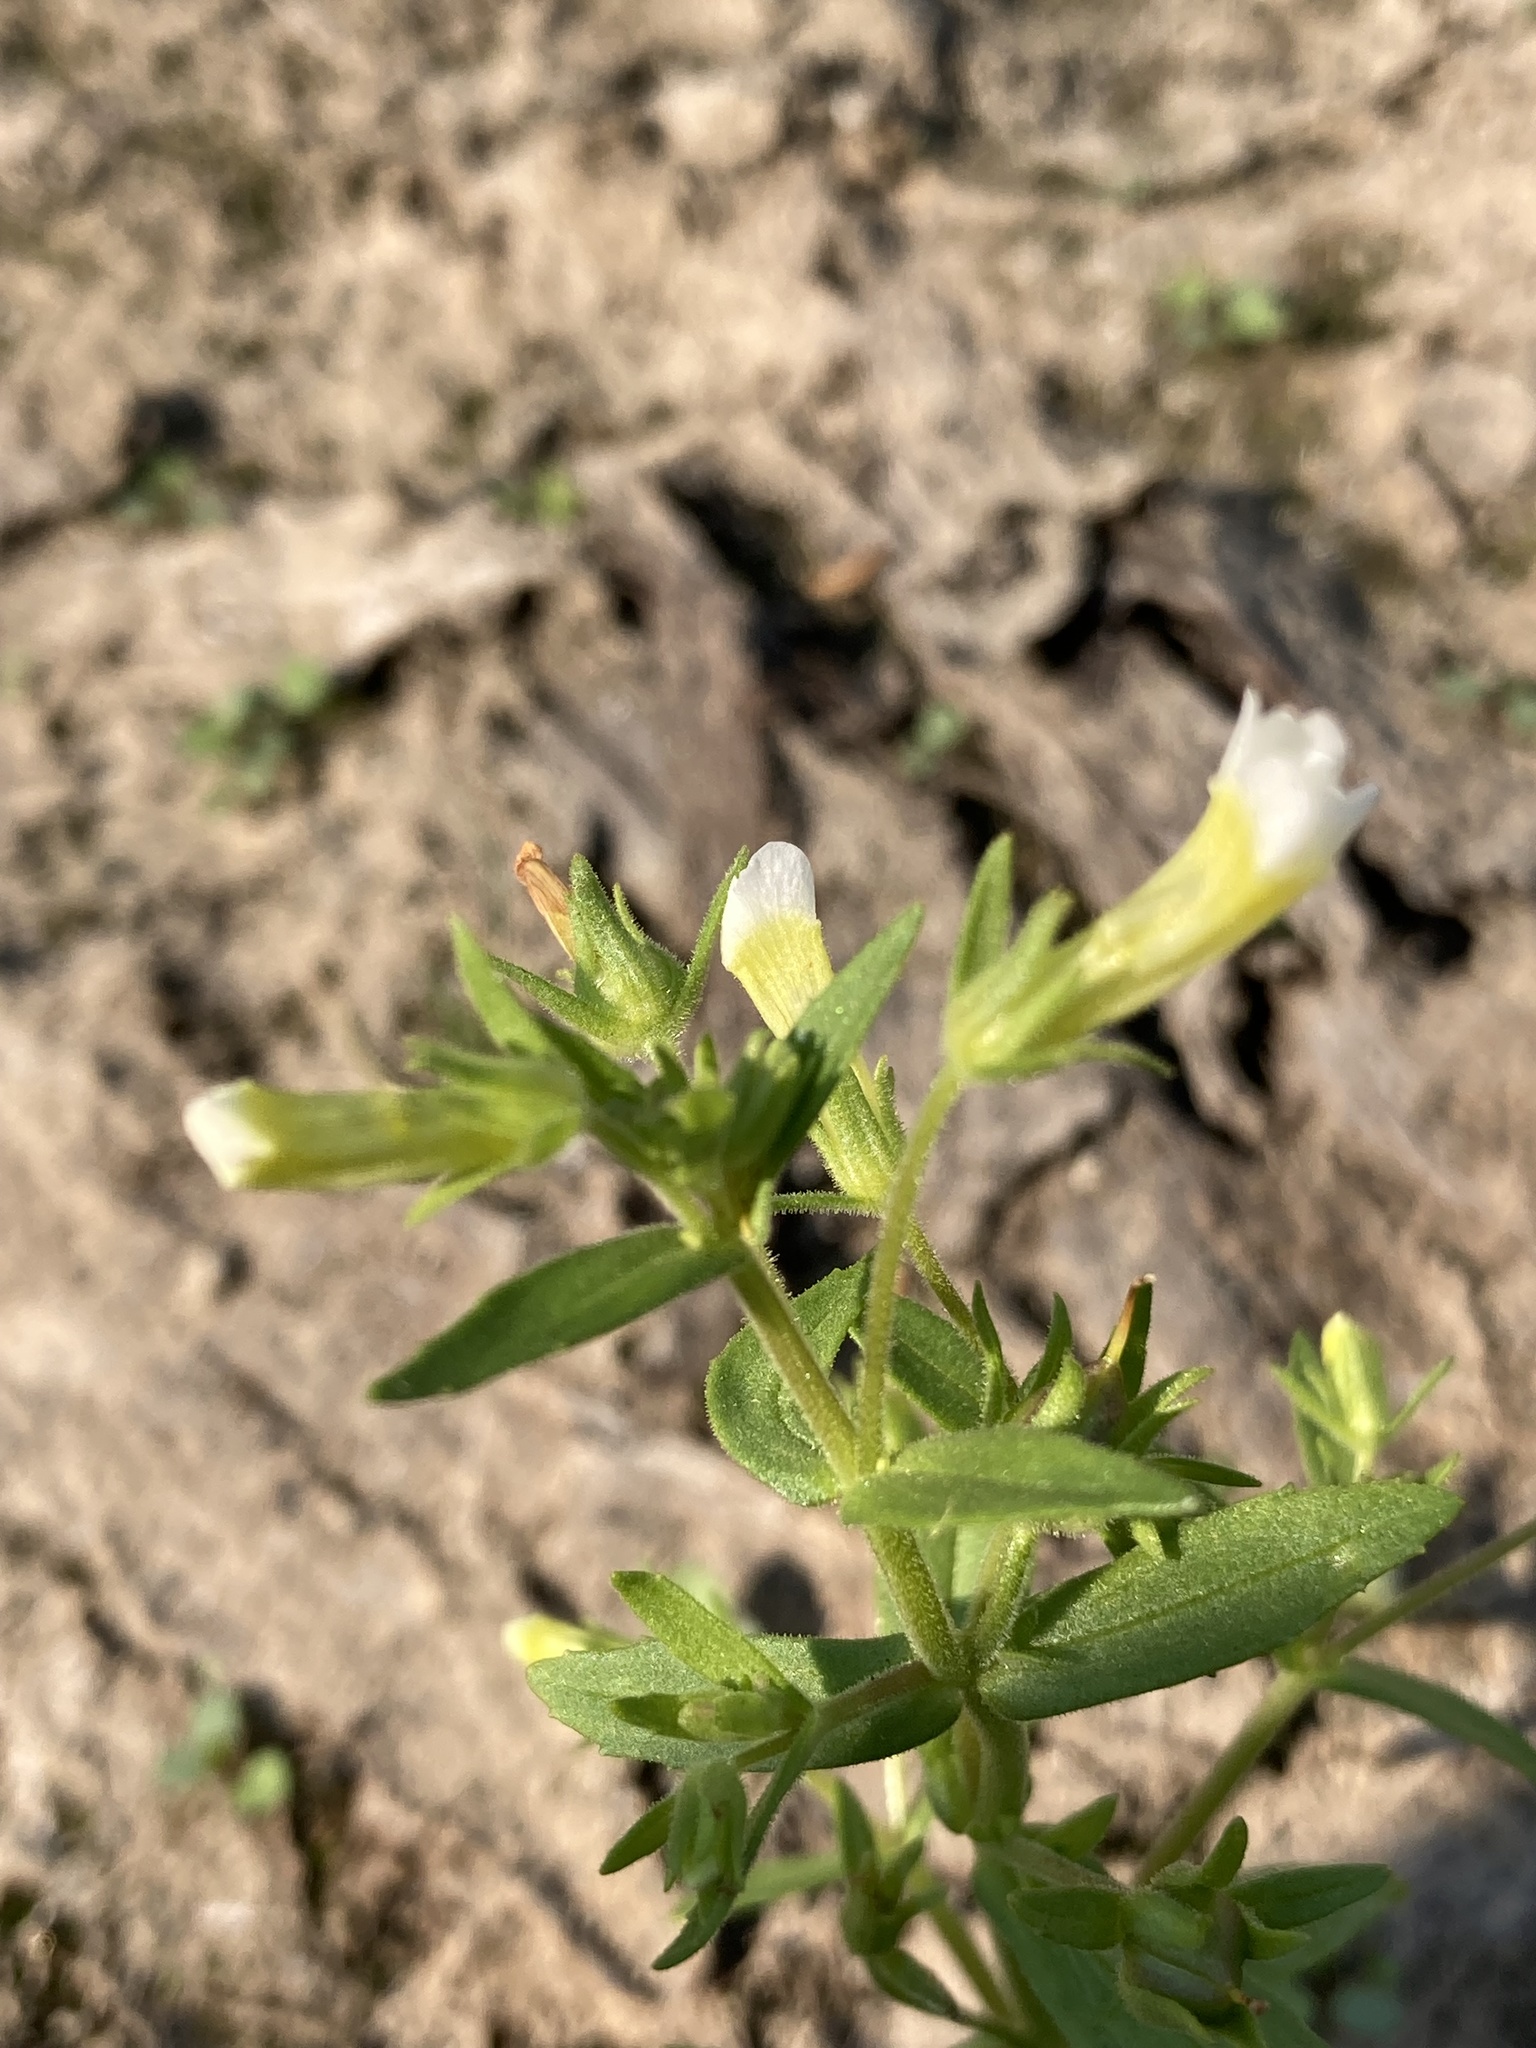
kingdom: Plantae
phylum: Tracheophyta
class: Magnoliopsida
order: Lamiales
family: Plantaginaceae
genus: Gratiola
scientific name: Gratiola neglecta
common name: American hedge-hyssop
